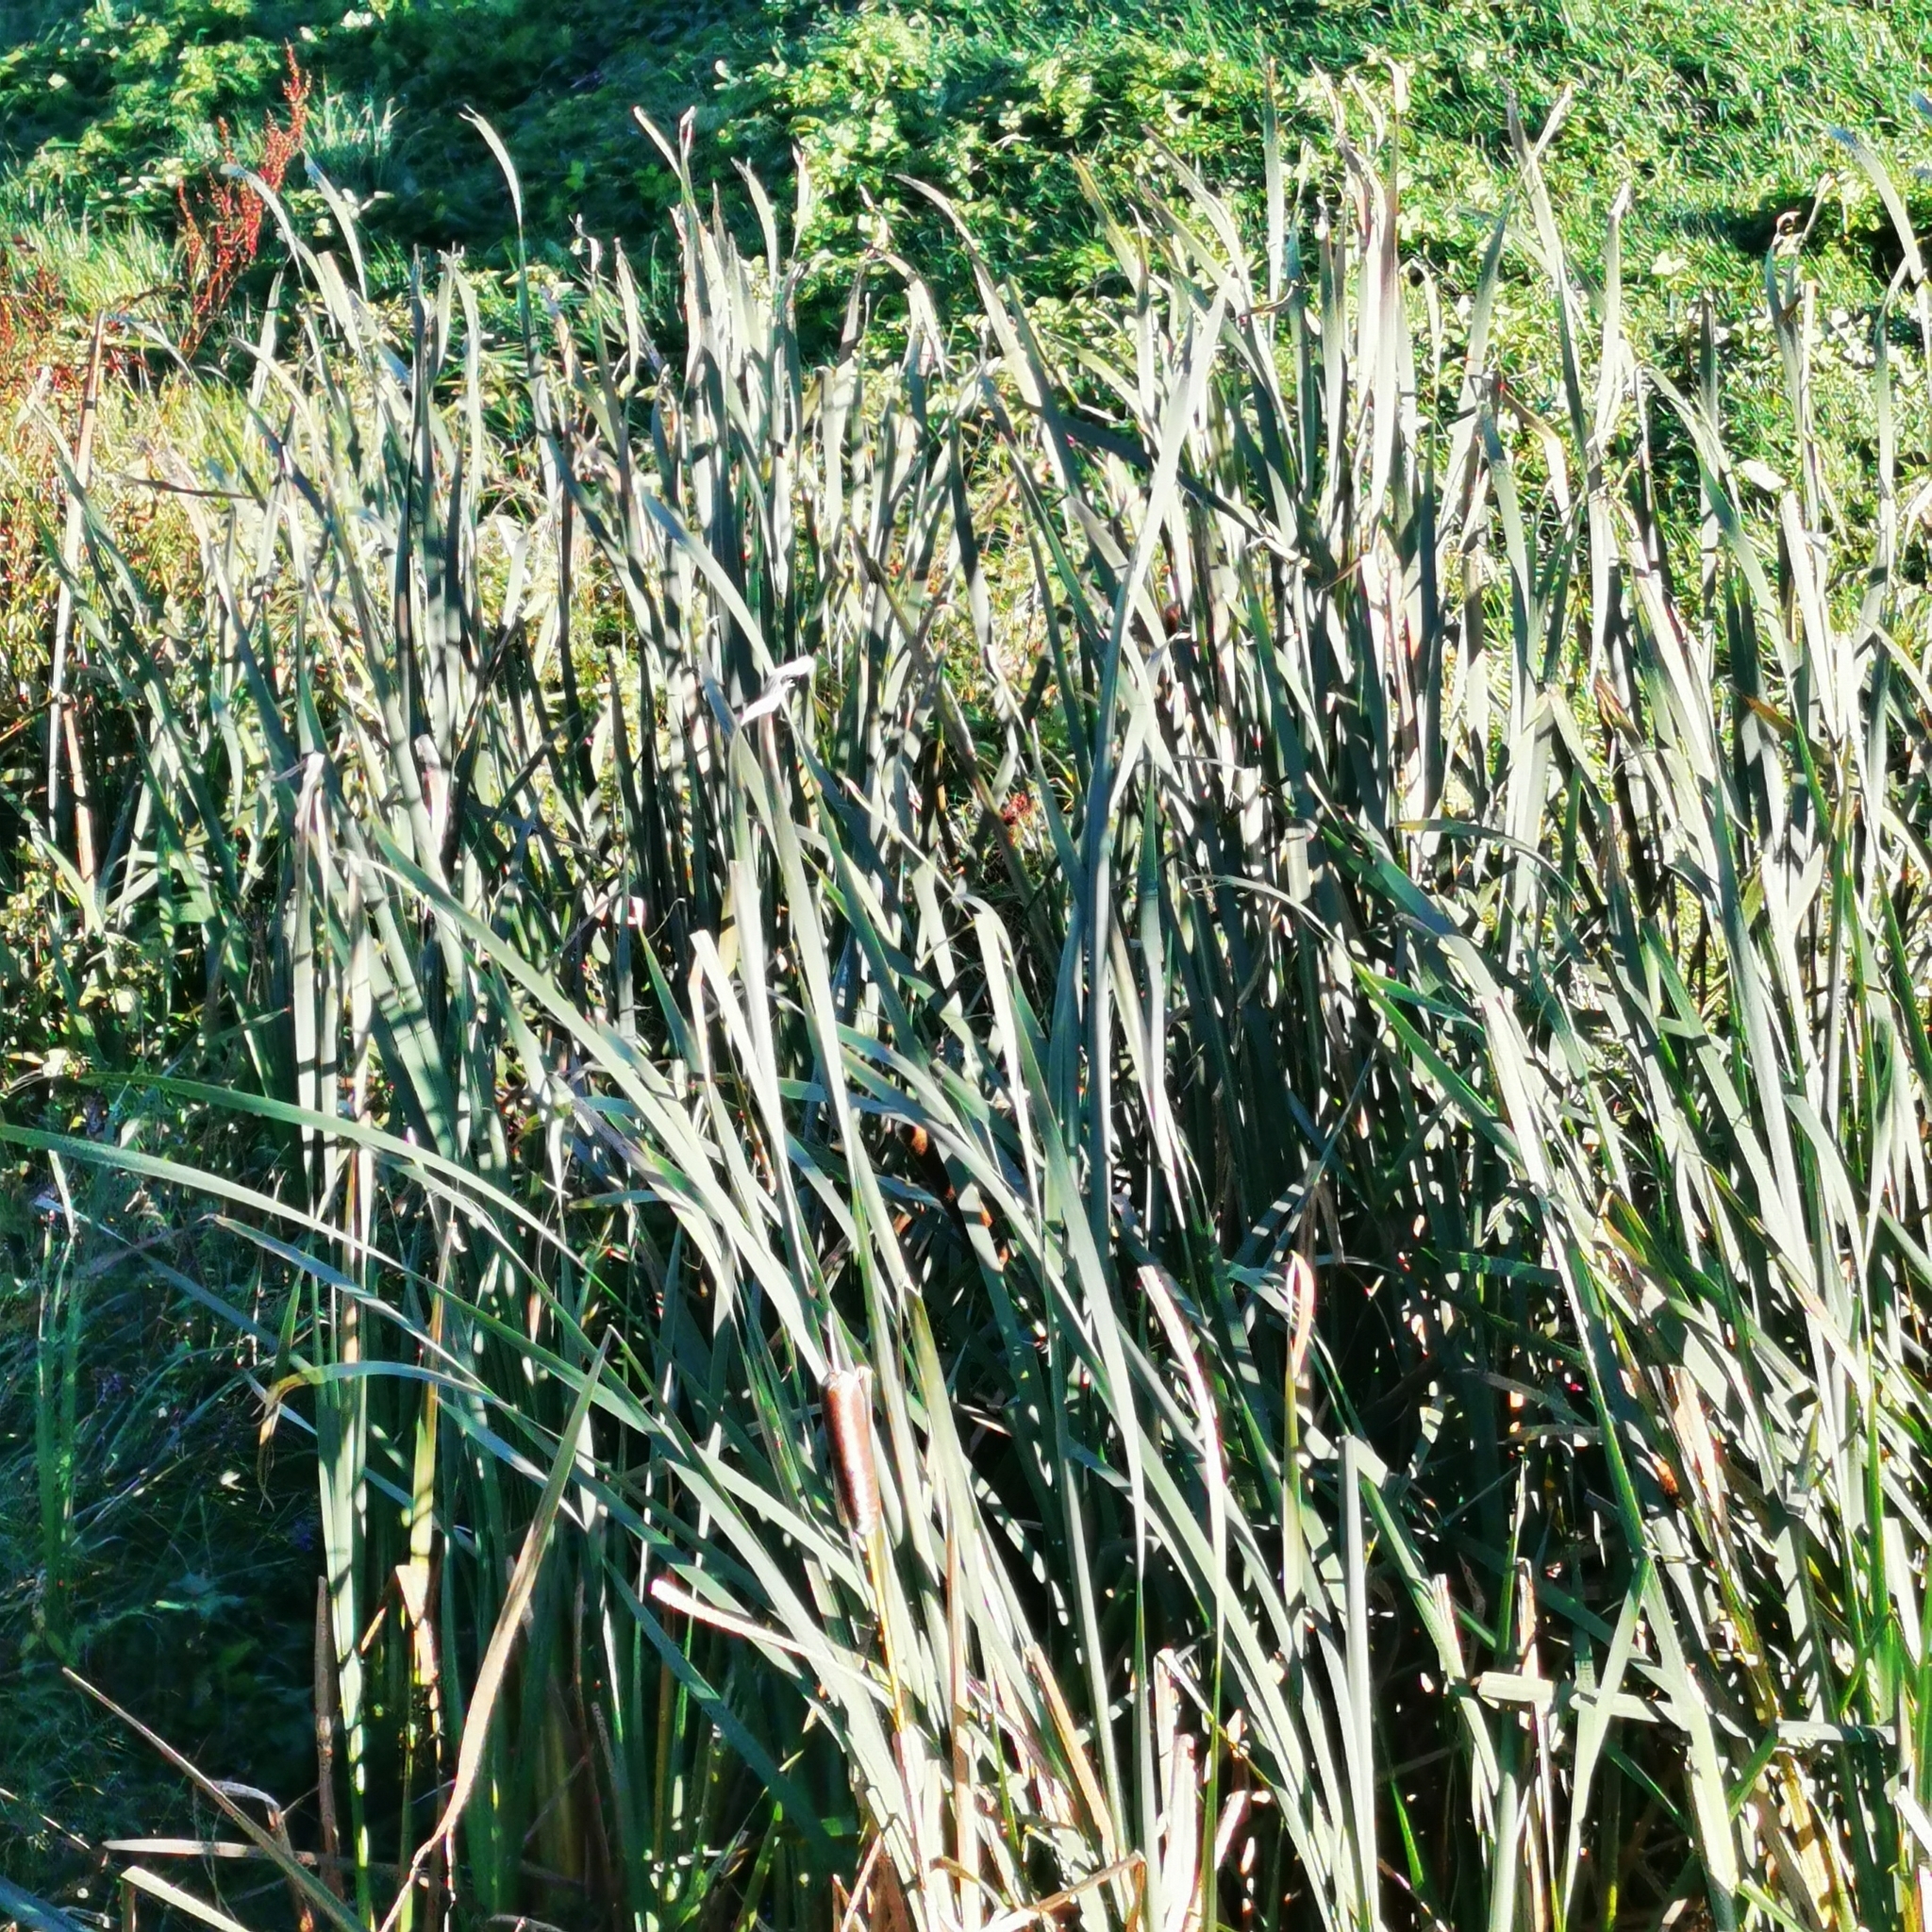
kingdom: Plantae
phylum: Tracheophyta
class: Liliopsida
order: Poales
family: Typhaceae
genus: Typha
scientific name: Typha latifolia
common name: Broadleaf cattail
